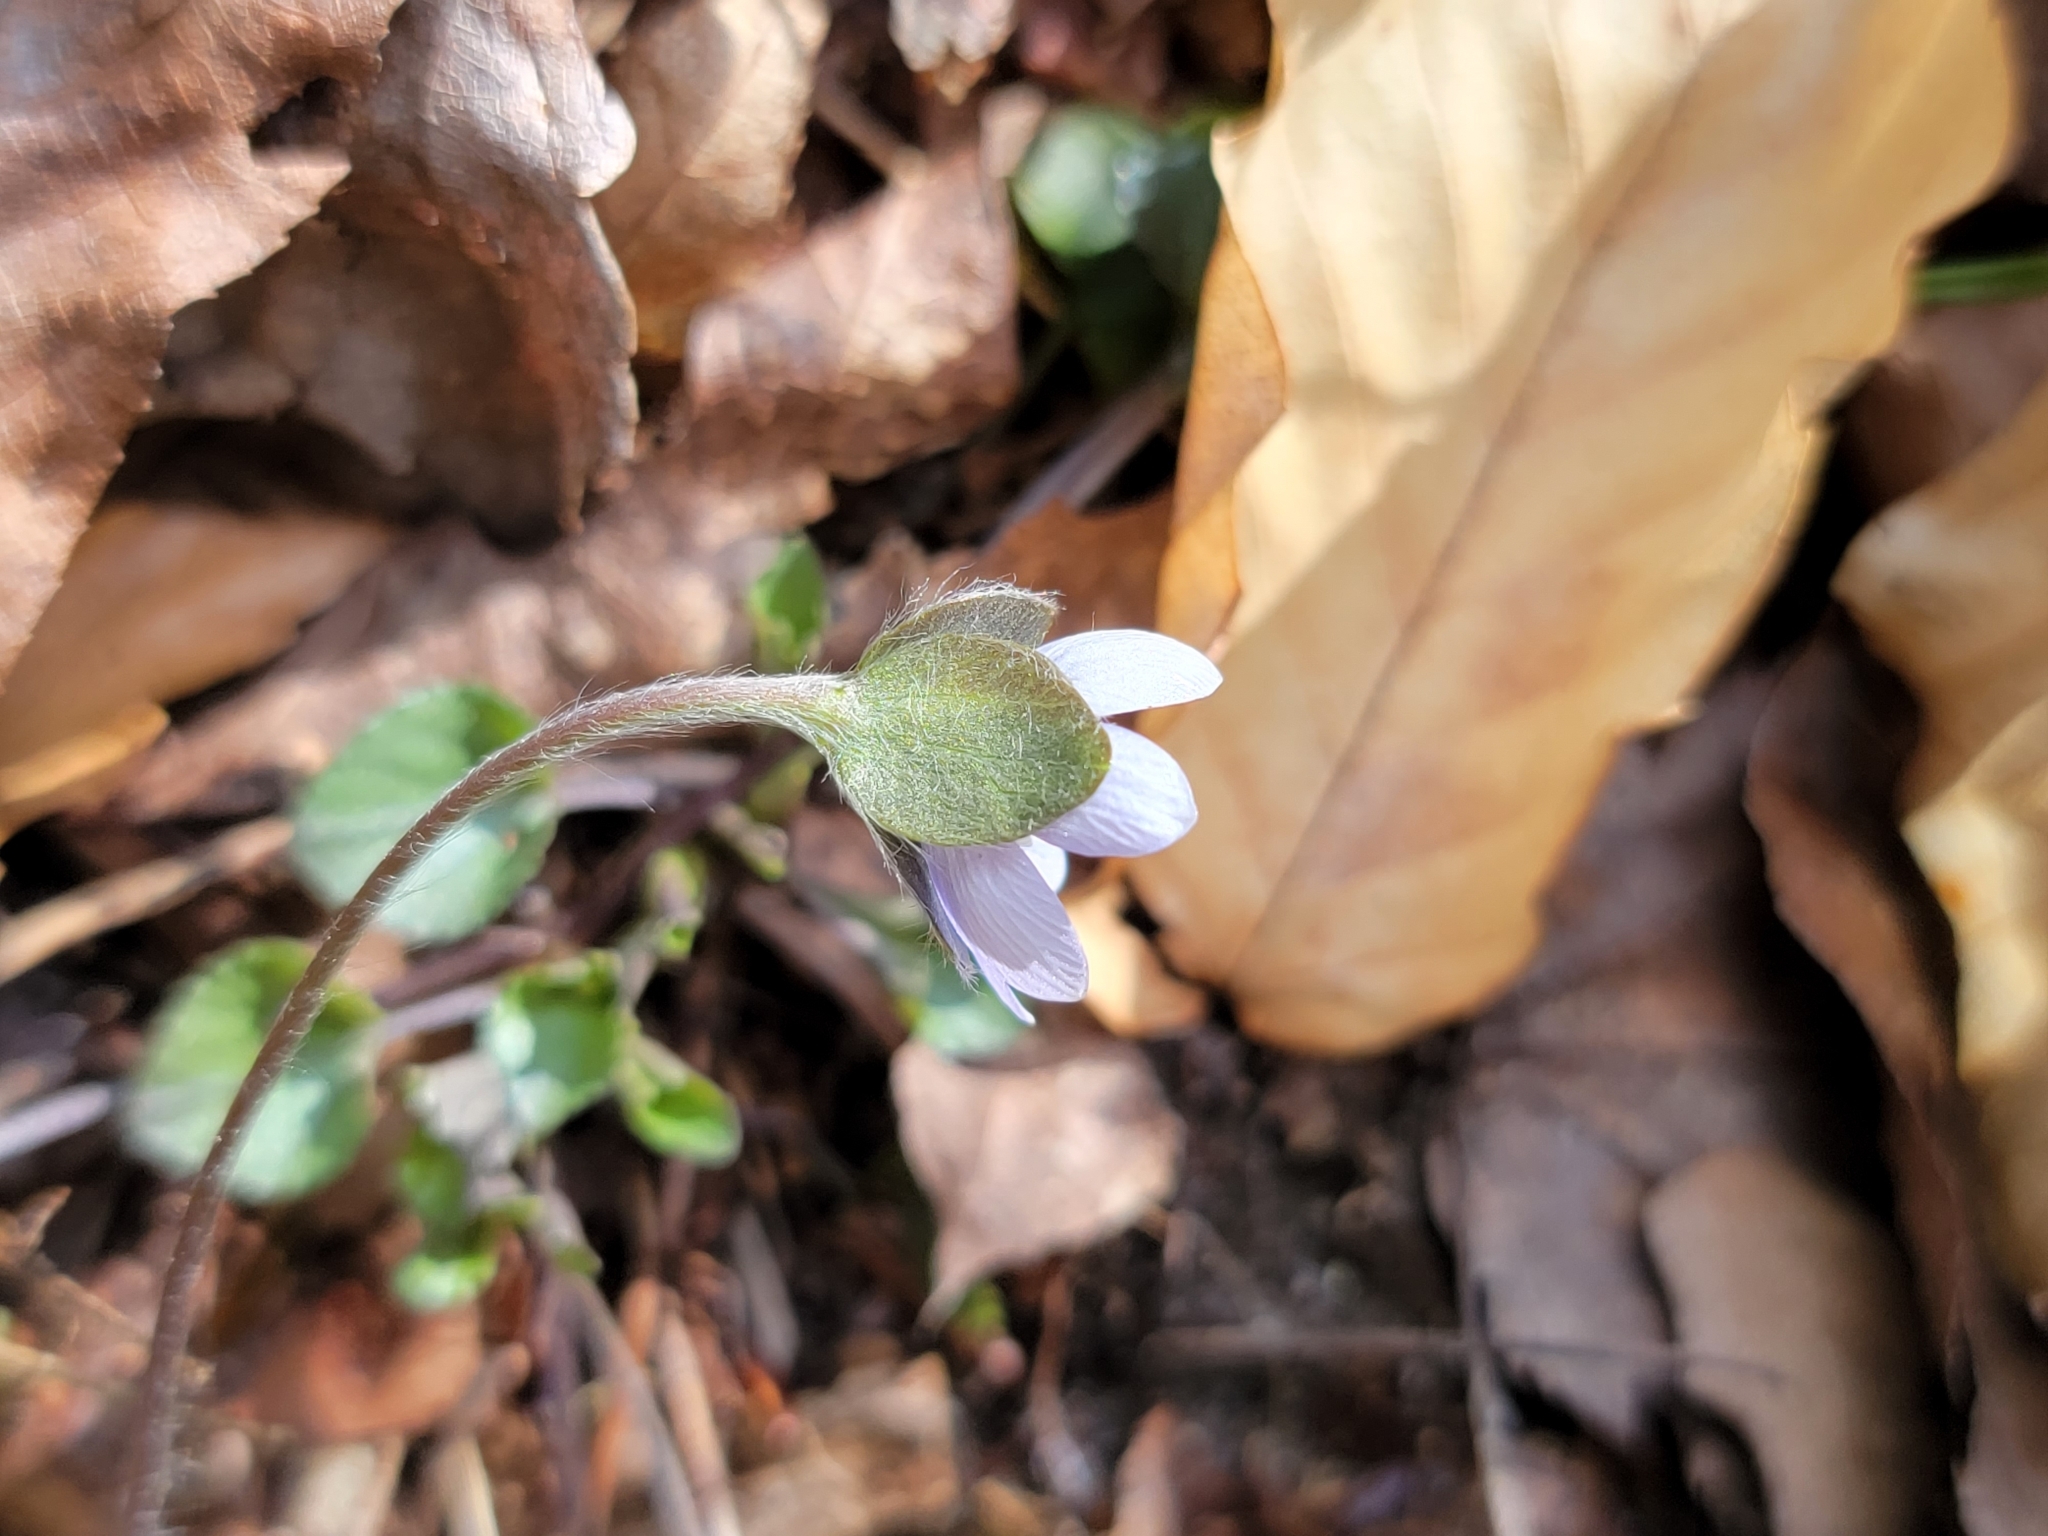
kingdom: Plantae
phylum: Tracheophyta
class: Magnoliopsida
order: Ranunculales
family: Ranunculaceae
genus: Hepatica
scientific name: Hepatica americana
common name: American hepatica
